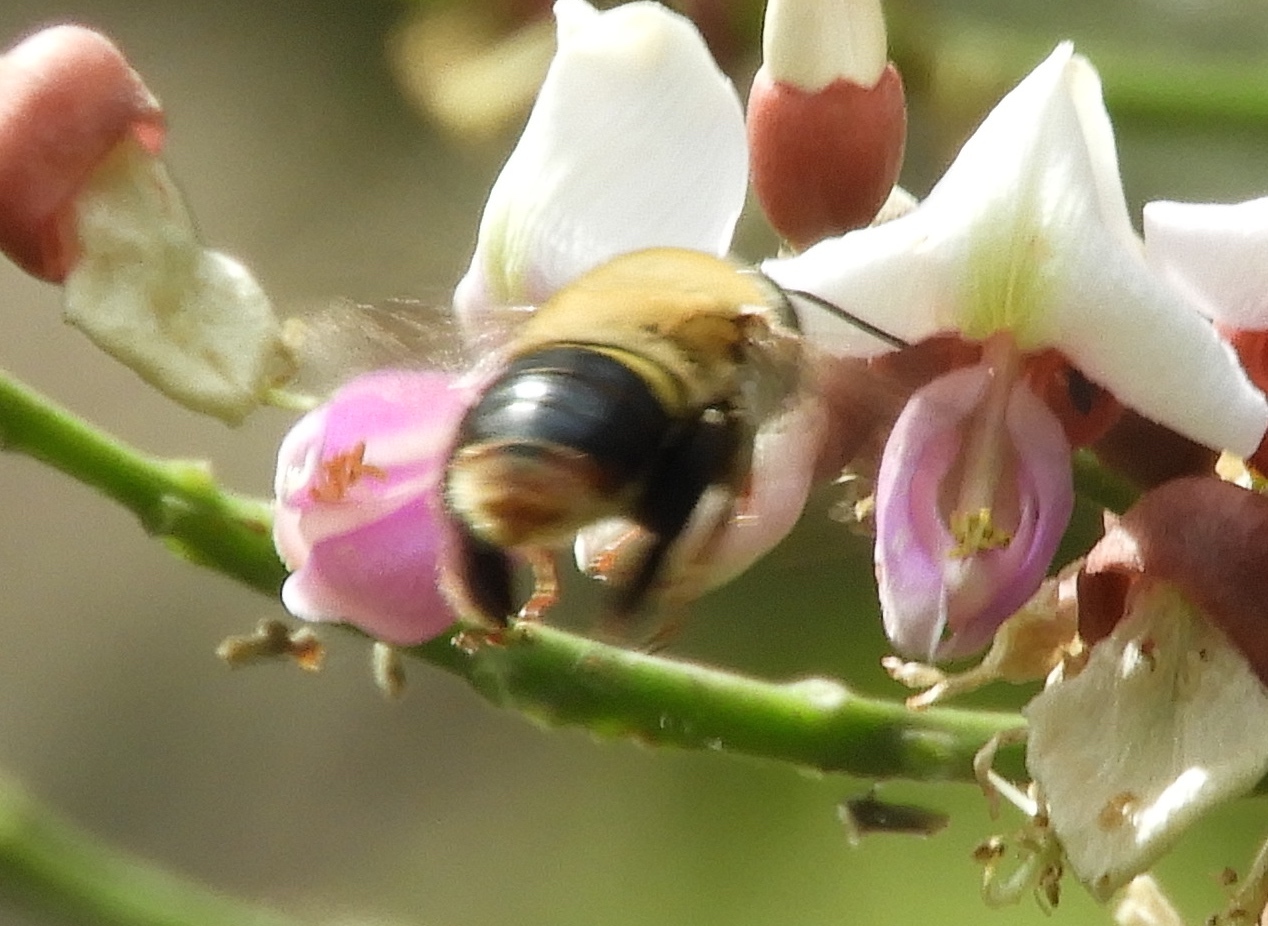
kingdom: Animalia
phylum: Arthropoda
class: Insecta
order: Hymenoptera
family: Apidae
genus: Centris
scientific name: Centris varia
